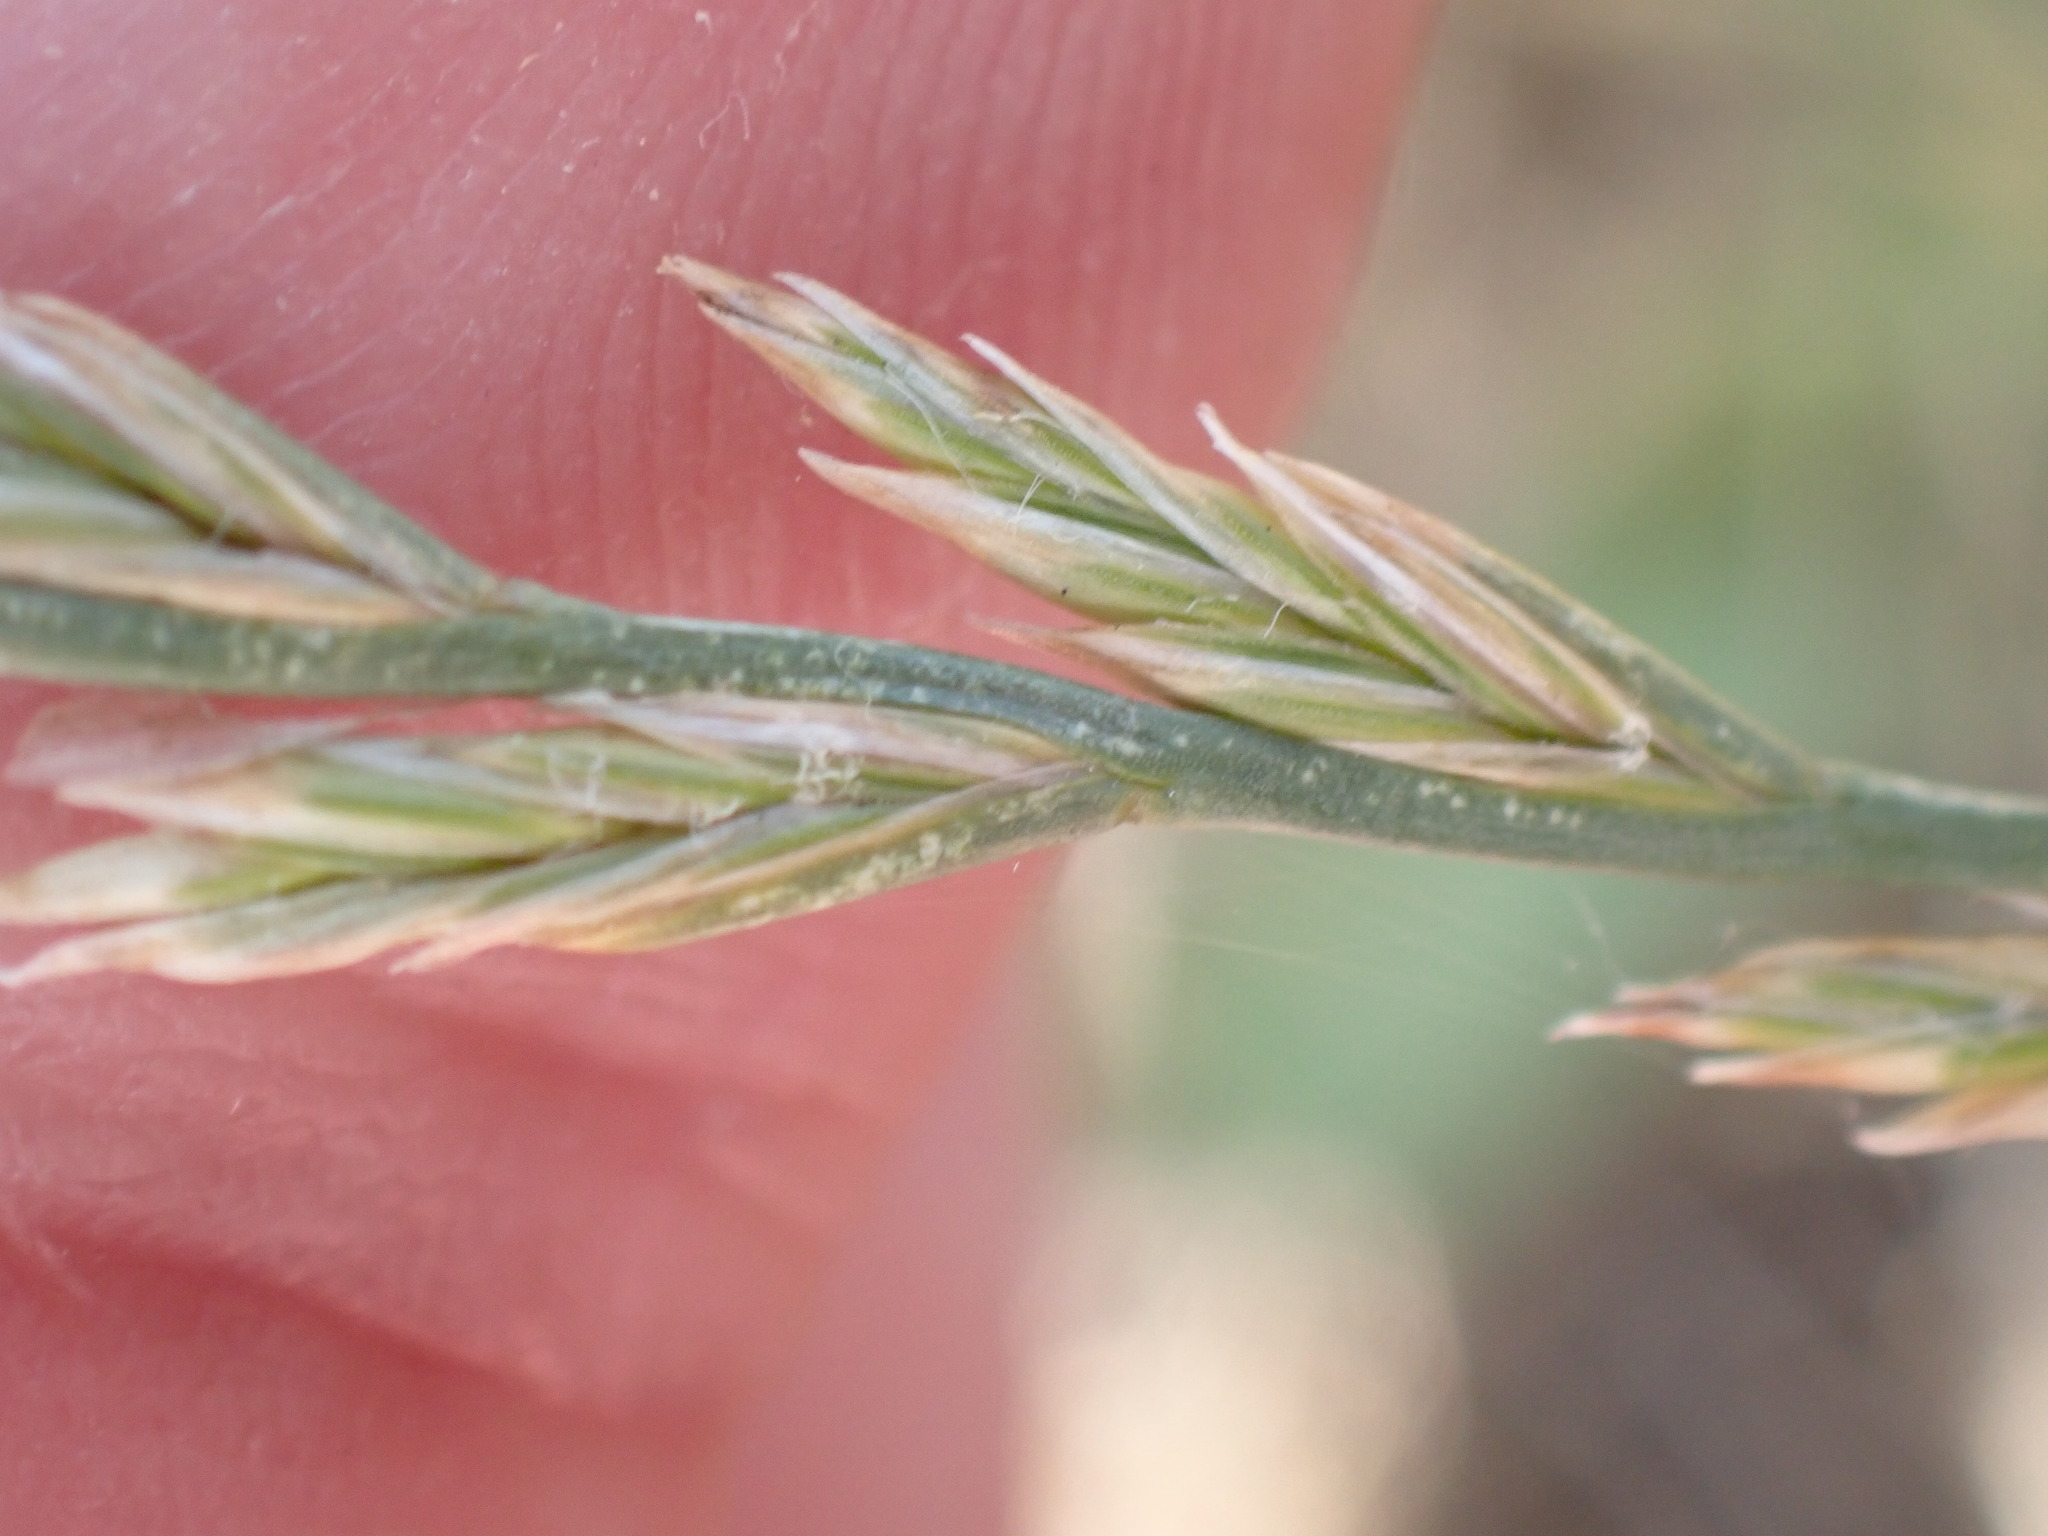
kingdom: Plantae
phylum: Tracheophyta
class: Liliopsida
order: Poales
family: Poaceae
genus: Lolium
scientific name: Lolium perenne
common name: Perennial ryegrass
